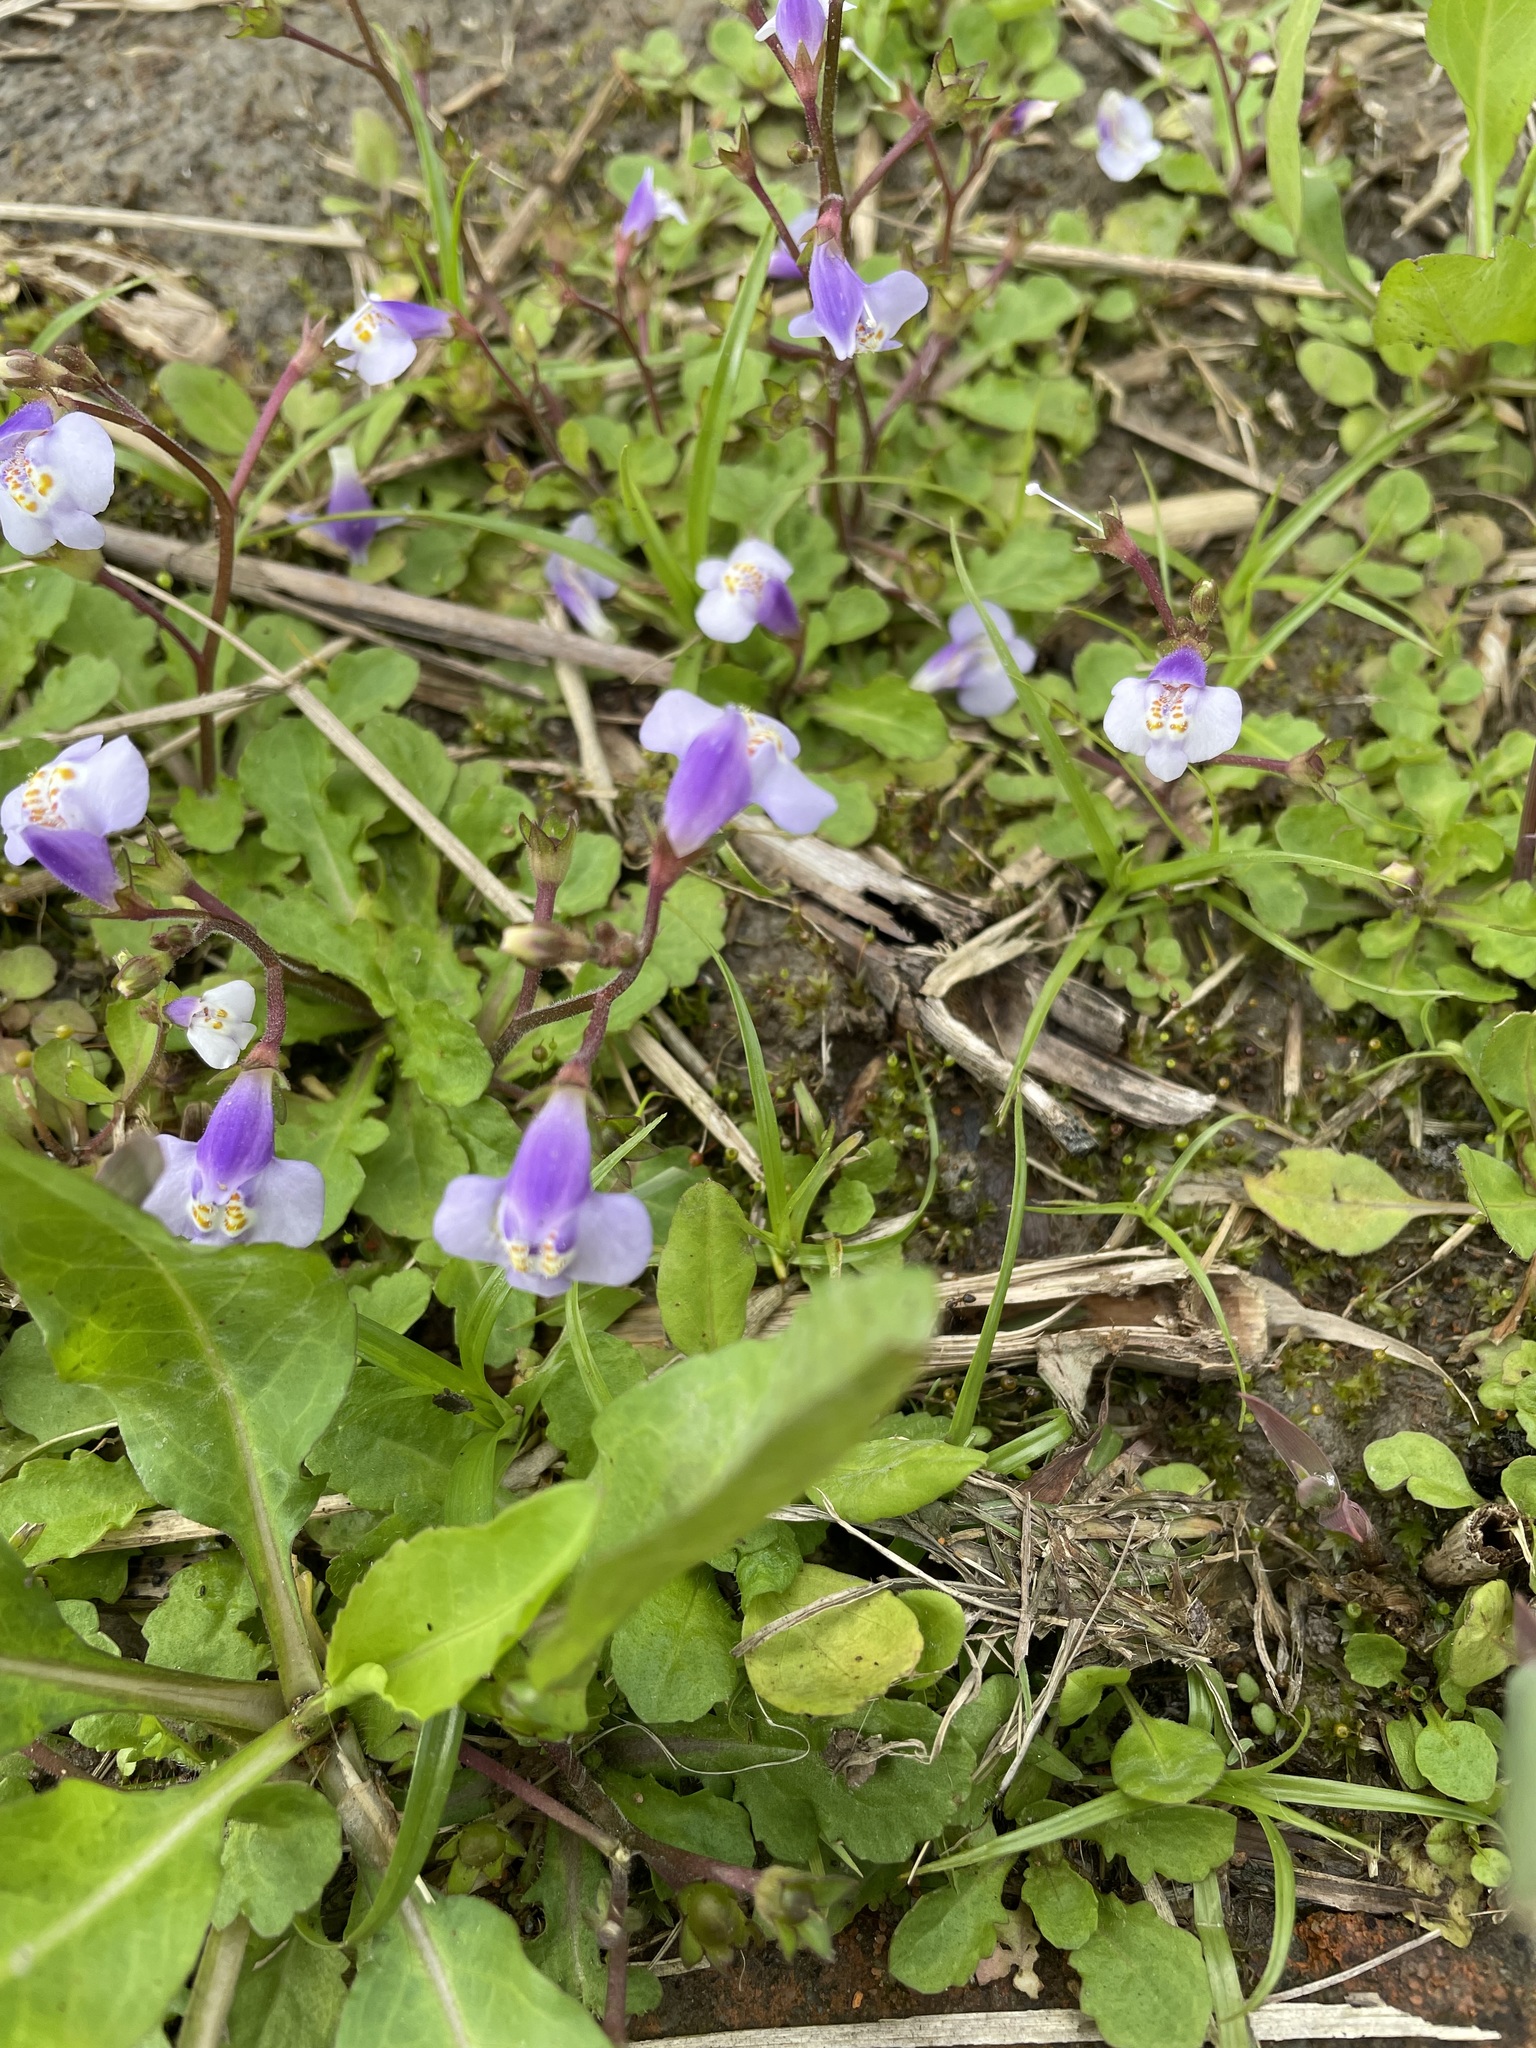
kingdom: Plantae
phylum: Tracheophyta
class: Magnoliopsida
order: Lamiales
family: Mazaceae
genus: Mazus
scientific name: Mazus pumilus
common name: Japanese mazus
